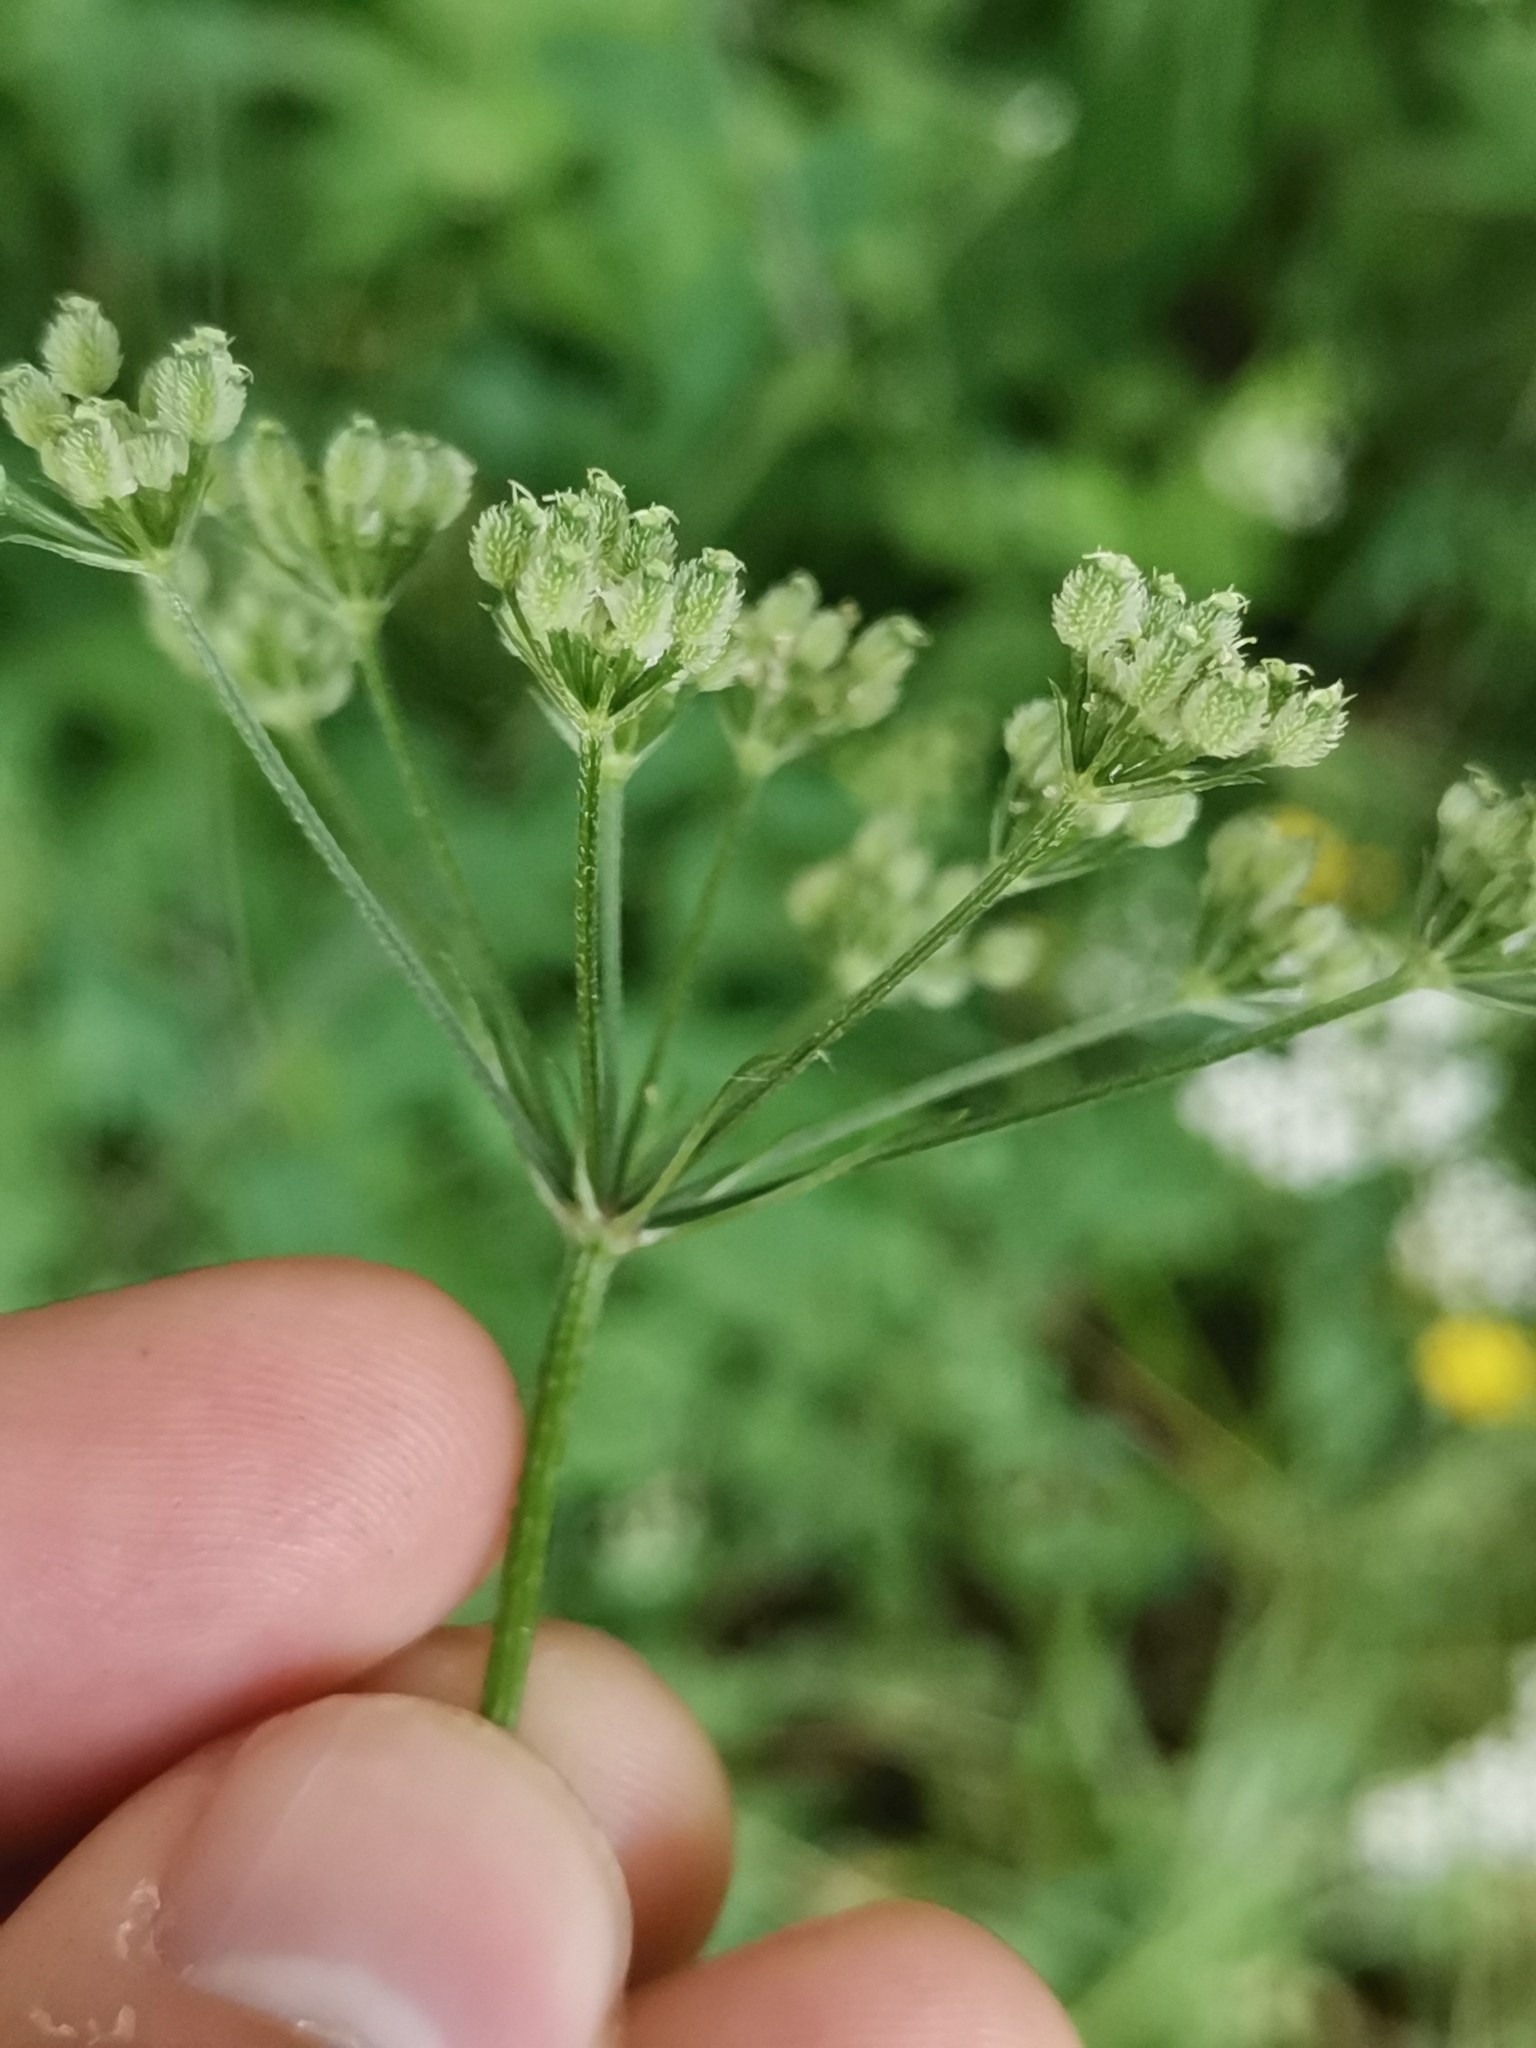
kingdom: Plantae
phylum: Tracheophyta
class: Magnoliopsida
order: Apiales
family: Apiaceae
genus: Torilis
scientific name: Torilis japonica
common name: Upright hedge-parsley
